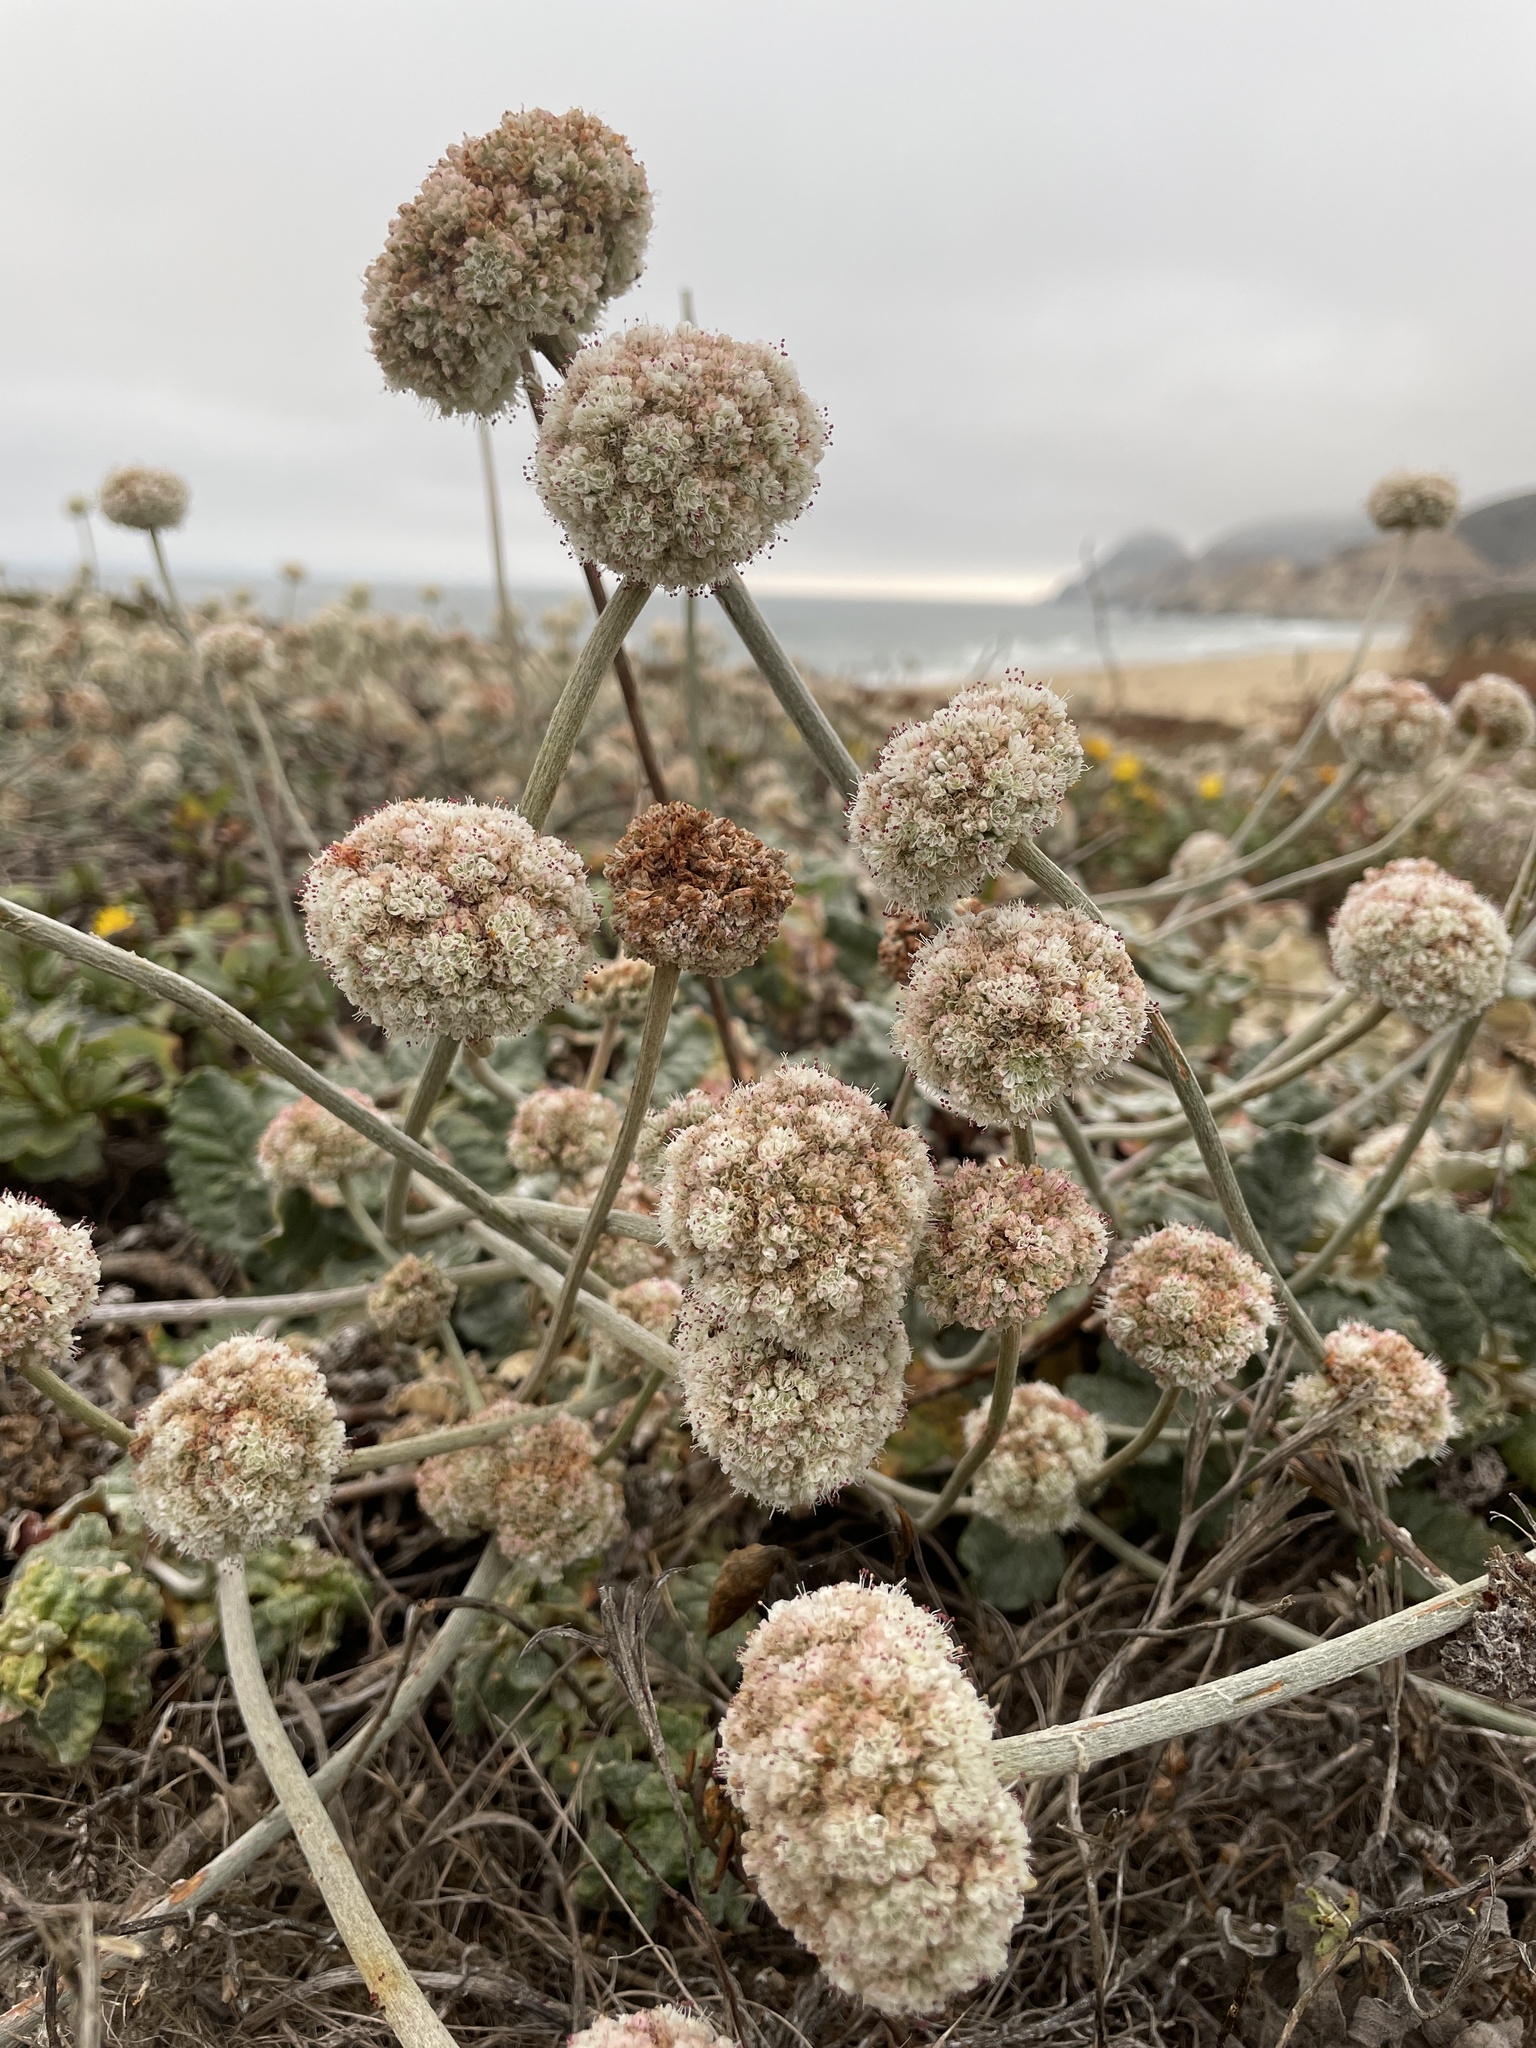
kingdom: Plantae
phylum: Tracheophyta
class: Magnoliopsida
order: Caryophyllales
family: Polygonaceae
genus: Eriogonum
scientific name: Eriogonum latifolium
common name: Seaside wild buckwheat
